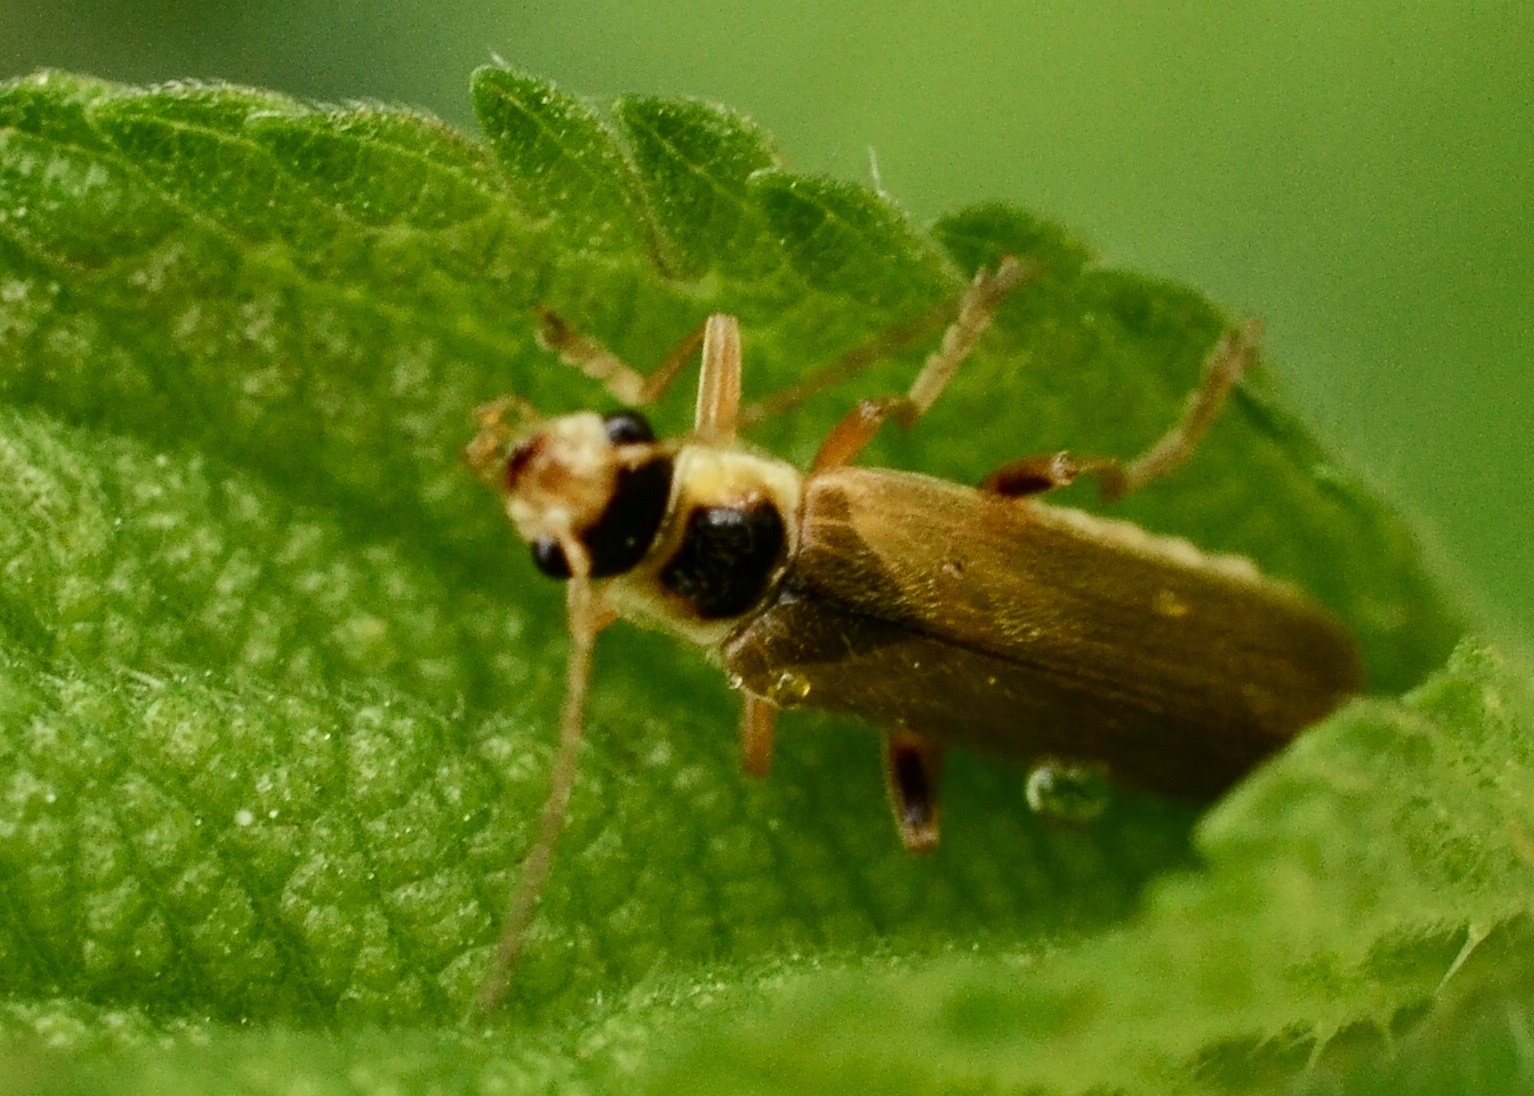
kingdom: Animalia
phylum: Arthropoda
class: Insecta
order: Coleoptera
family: Cantharidae
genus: Cantharis
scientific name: Cantharis decipiens
